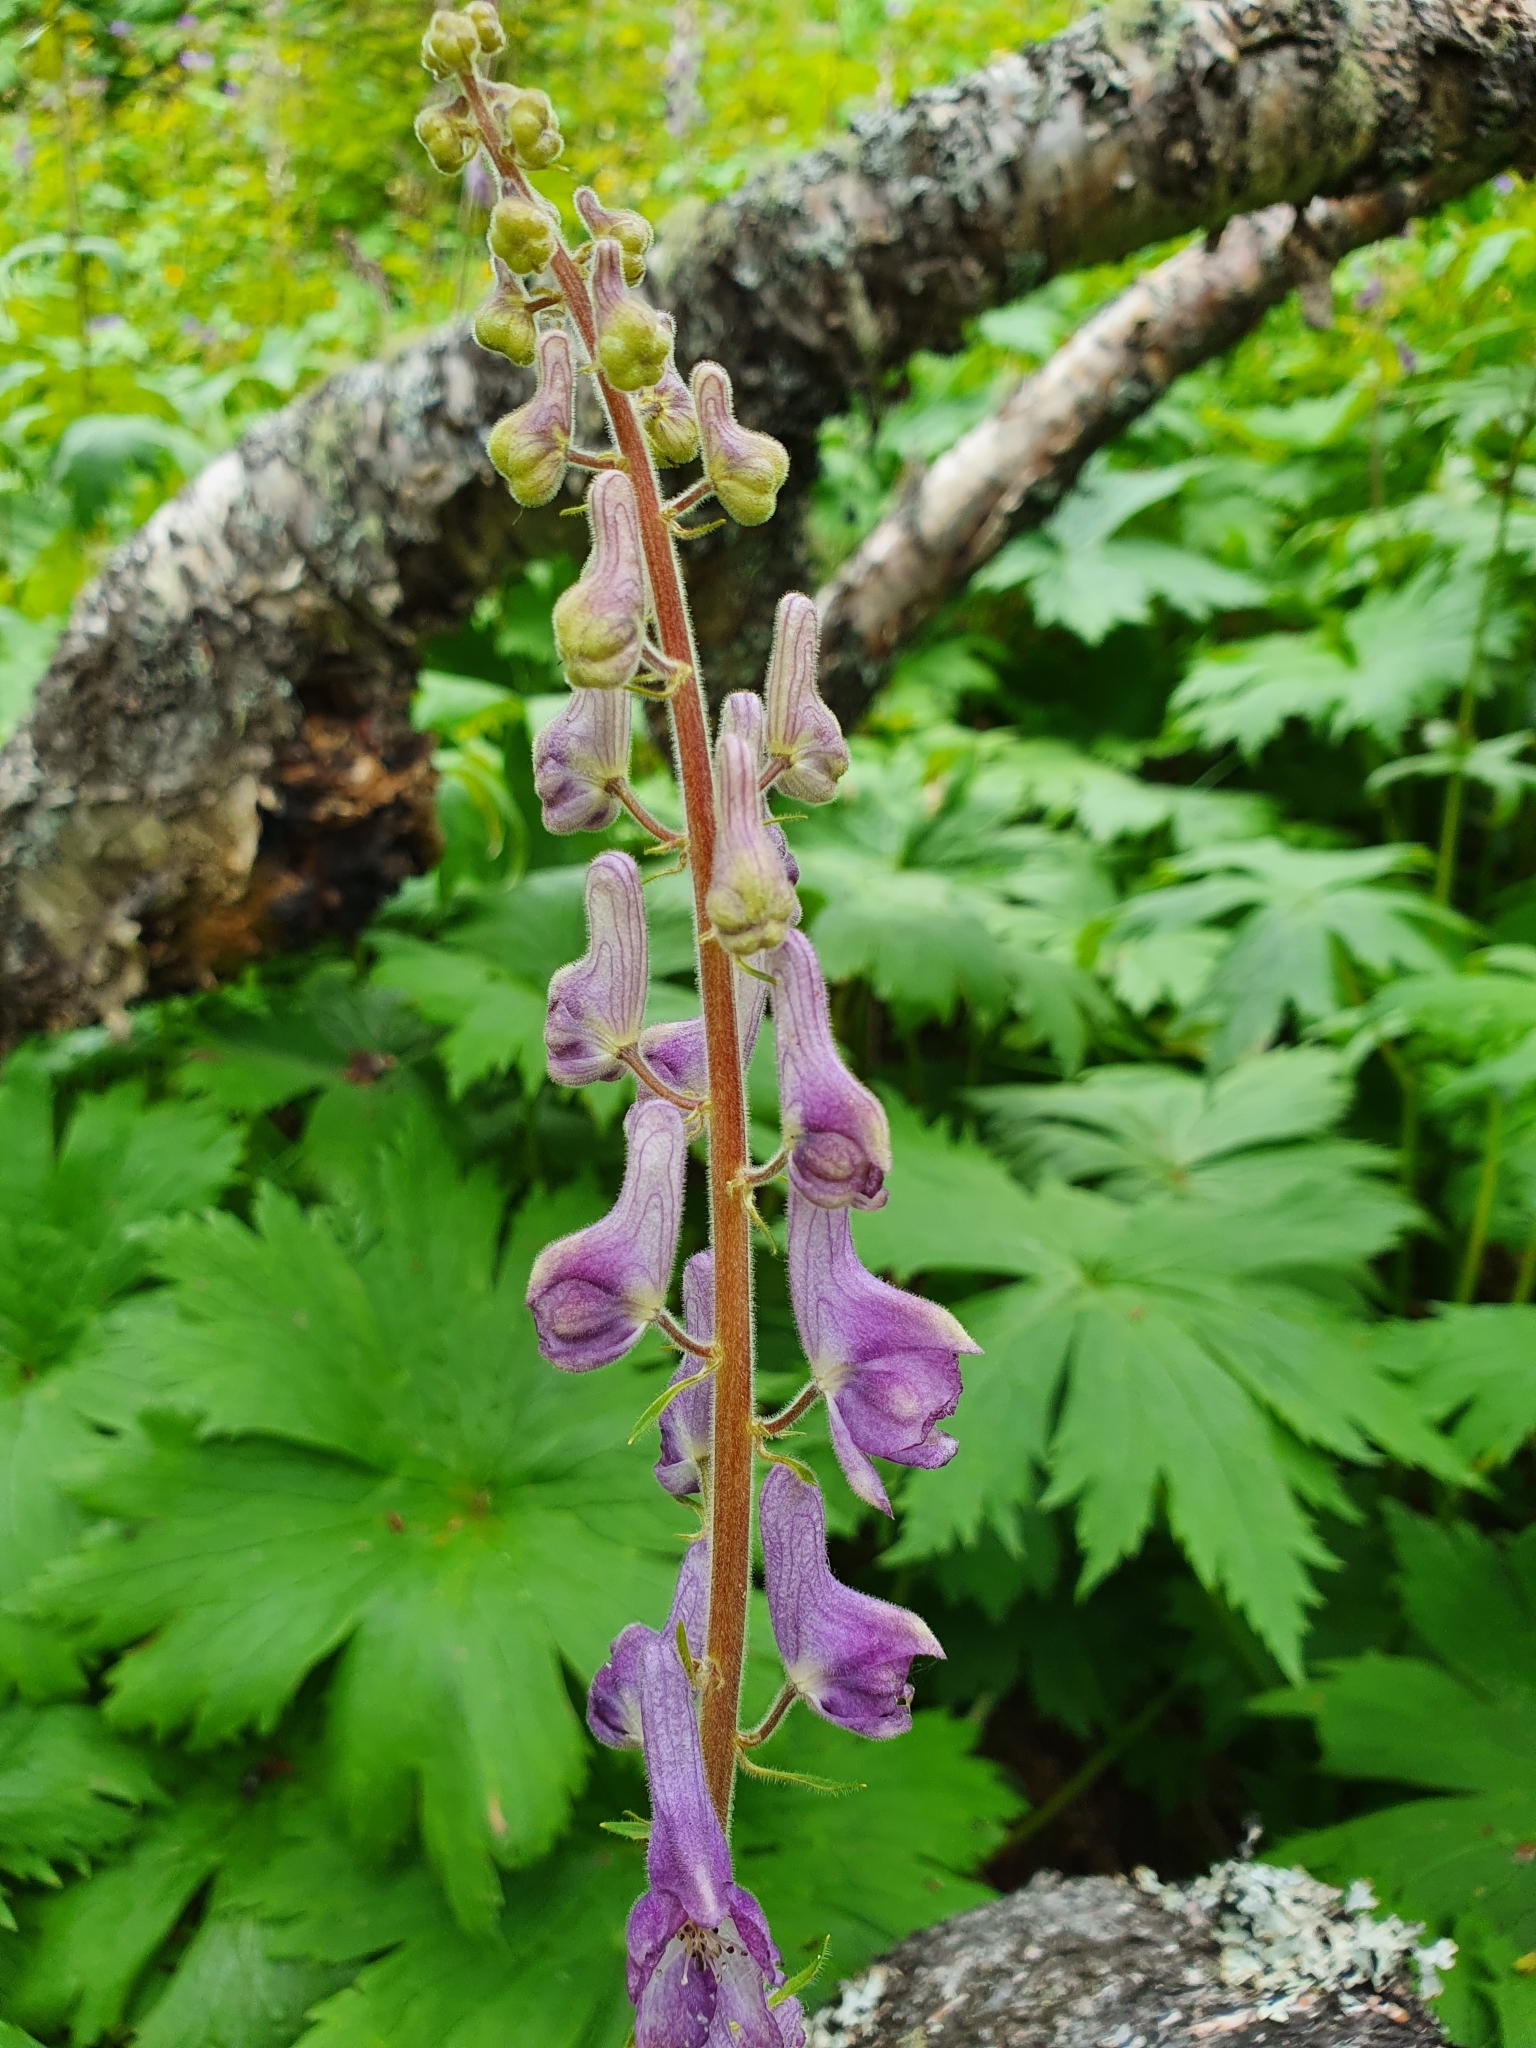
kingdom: Plantae
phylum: Tracheophyta
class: Magnoliopsida
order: Ranunculales
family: Ranunculaceae
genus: Aconitum
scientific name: Aconitum septentrionale
